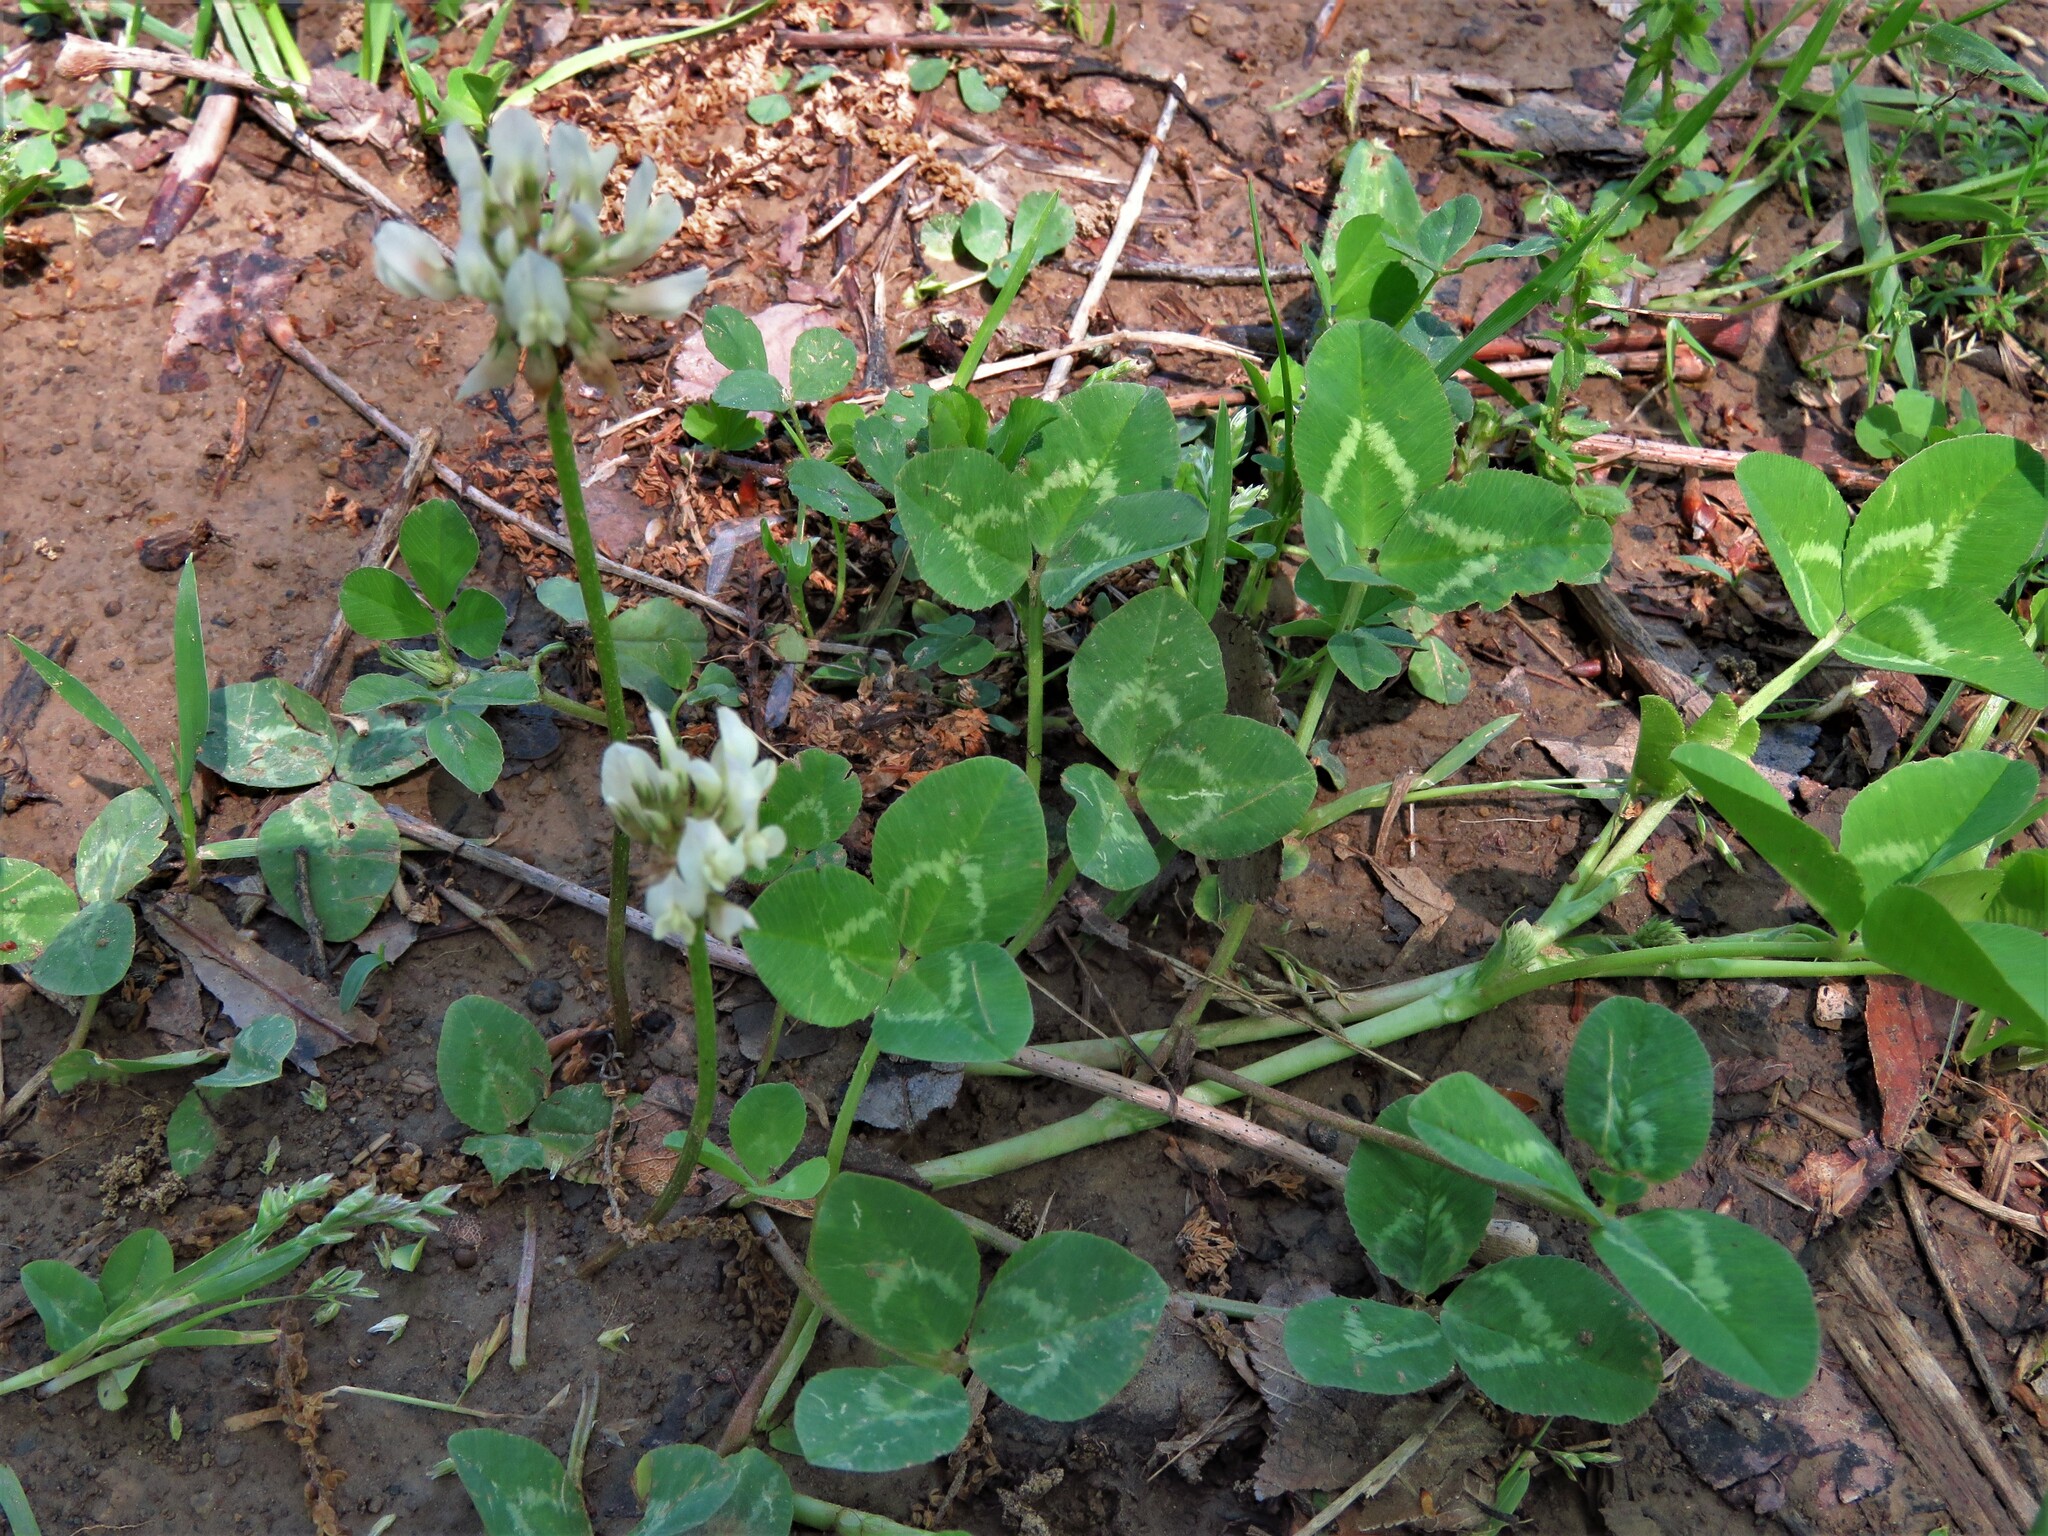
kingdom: Plantae
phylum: Tracheophyta
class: Magnoliopsida
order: Fabales
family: Fabaceae
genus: Trifolium
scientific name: Trifolium repens
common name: White clover
